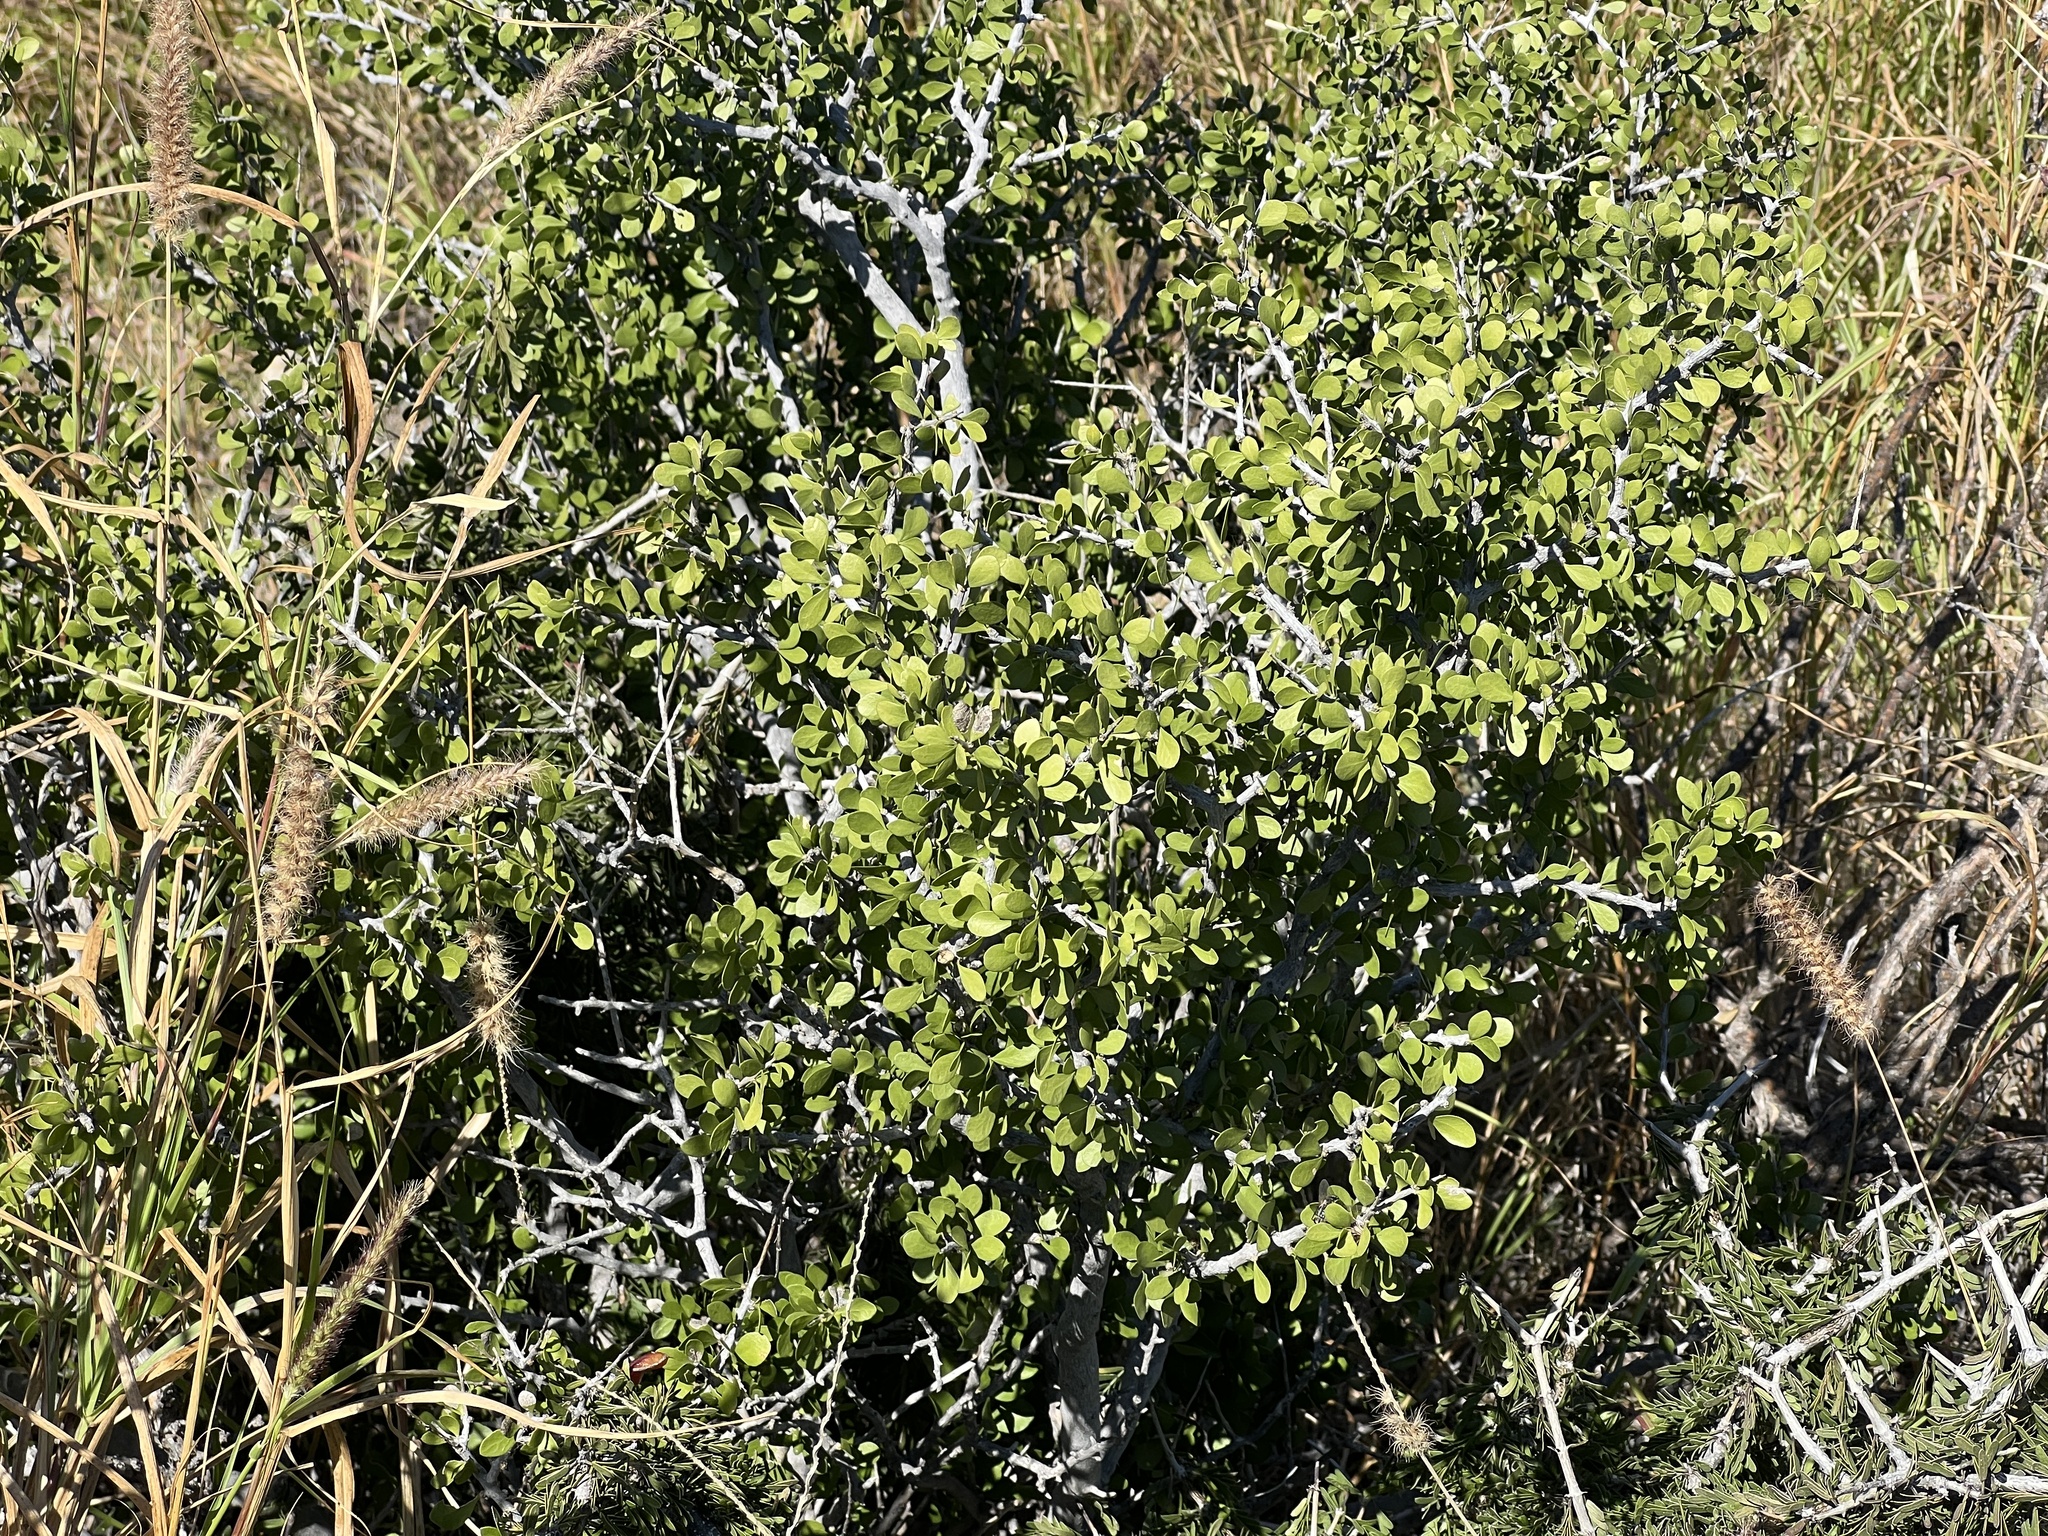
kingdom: Plantae
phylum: Tracheophyta
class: Magnoliopsida
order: Ericales
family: Ebenaceae
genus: Diospyros
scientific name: Diospyros texana
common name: Texas persimmon
